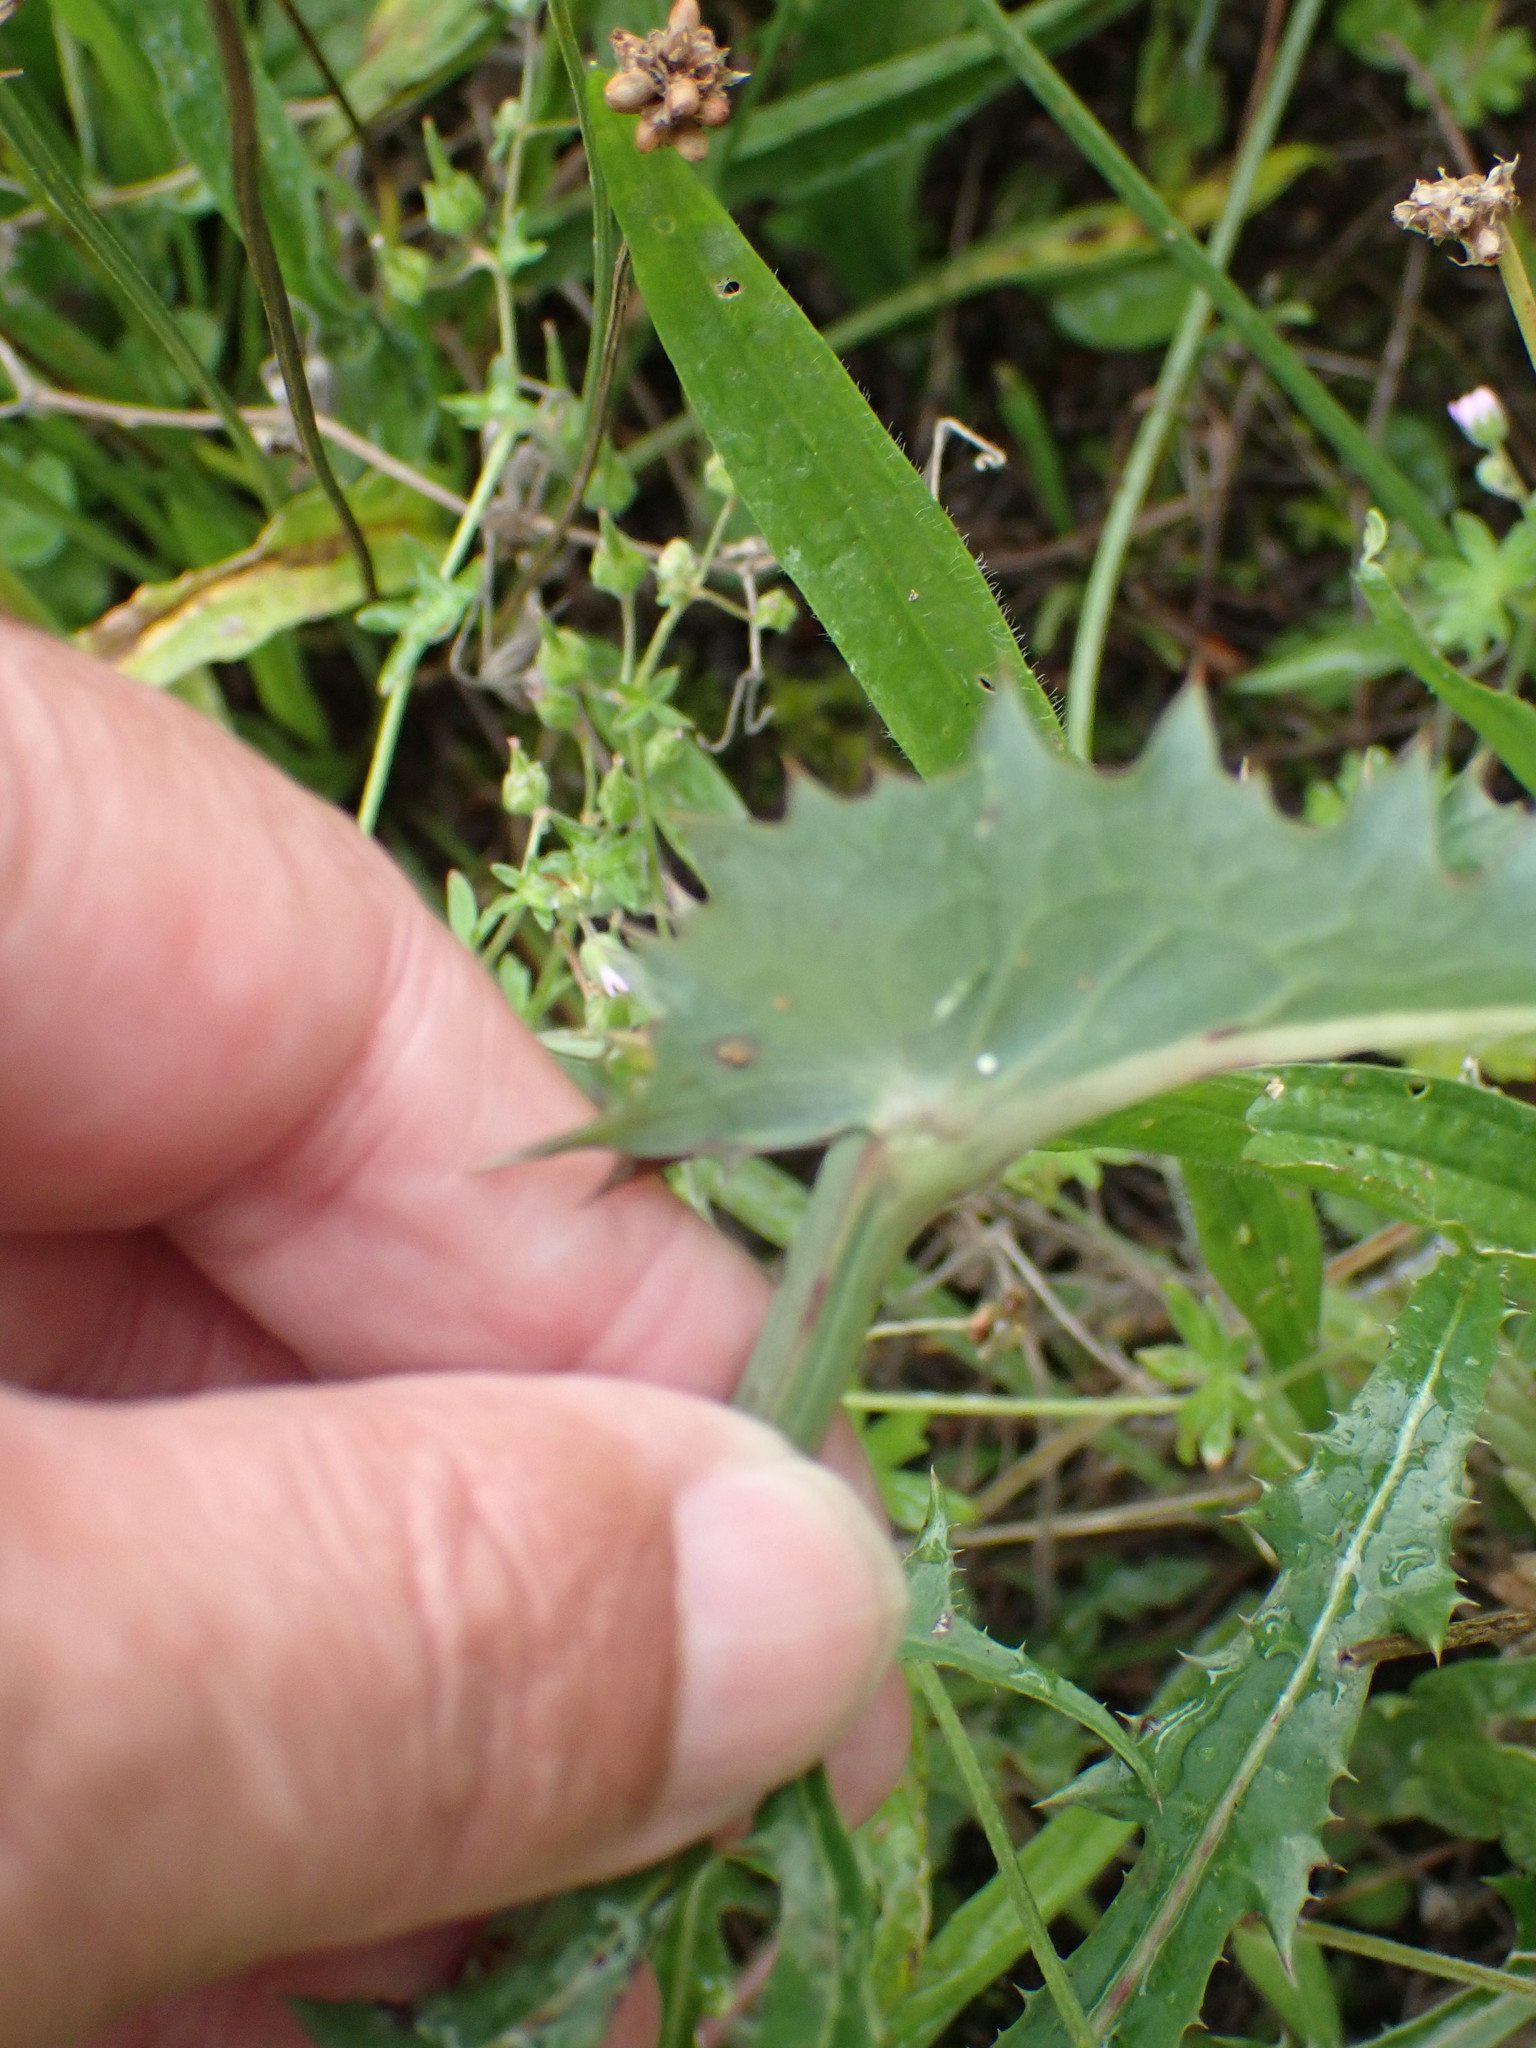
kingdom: Plantae
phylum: Tracheophyta
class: Magnoliopsida
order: Asterales
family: Asteraceae
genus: Sonchus
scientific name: Sonchus oleraceus
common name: Common sowthistle
